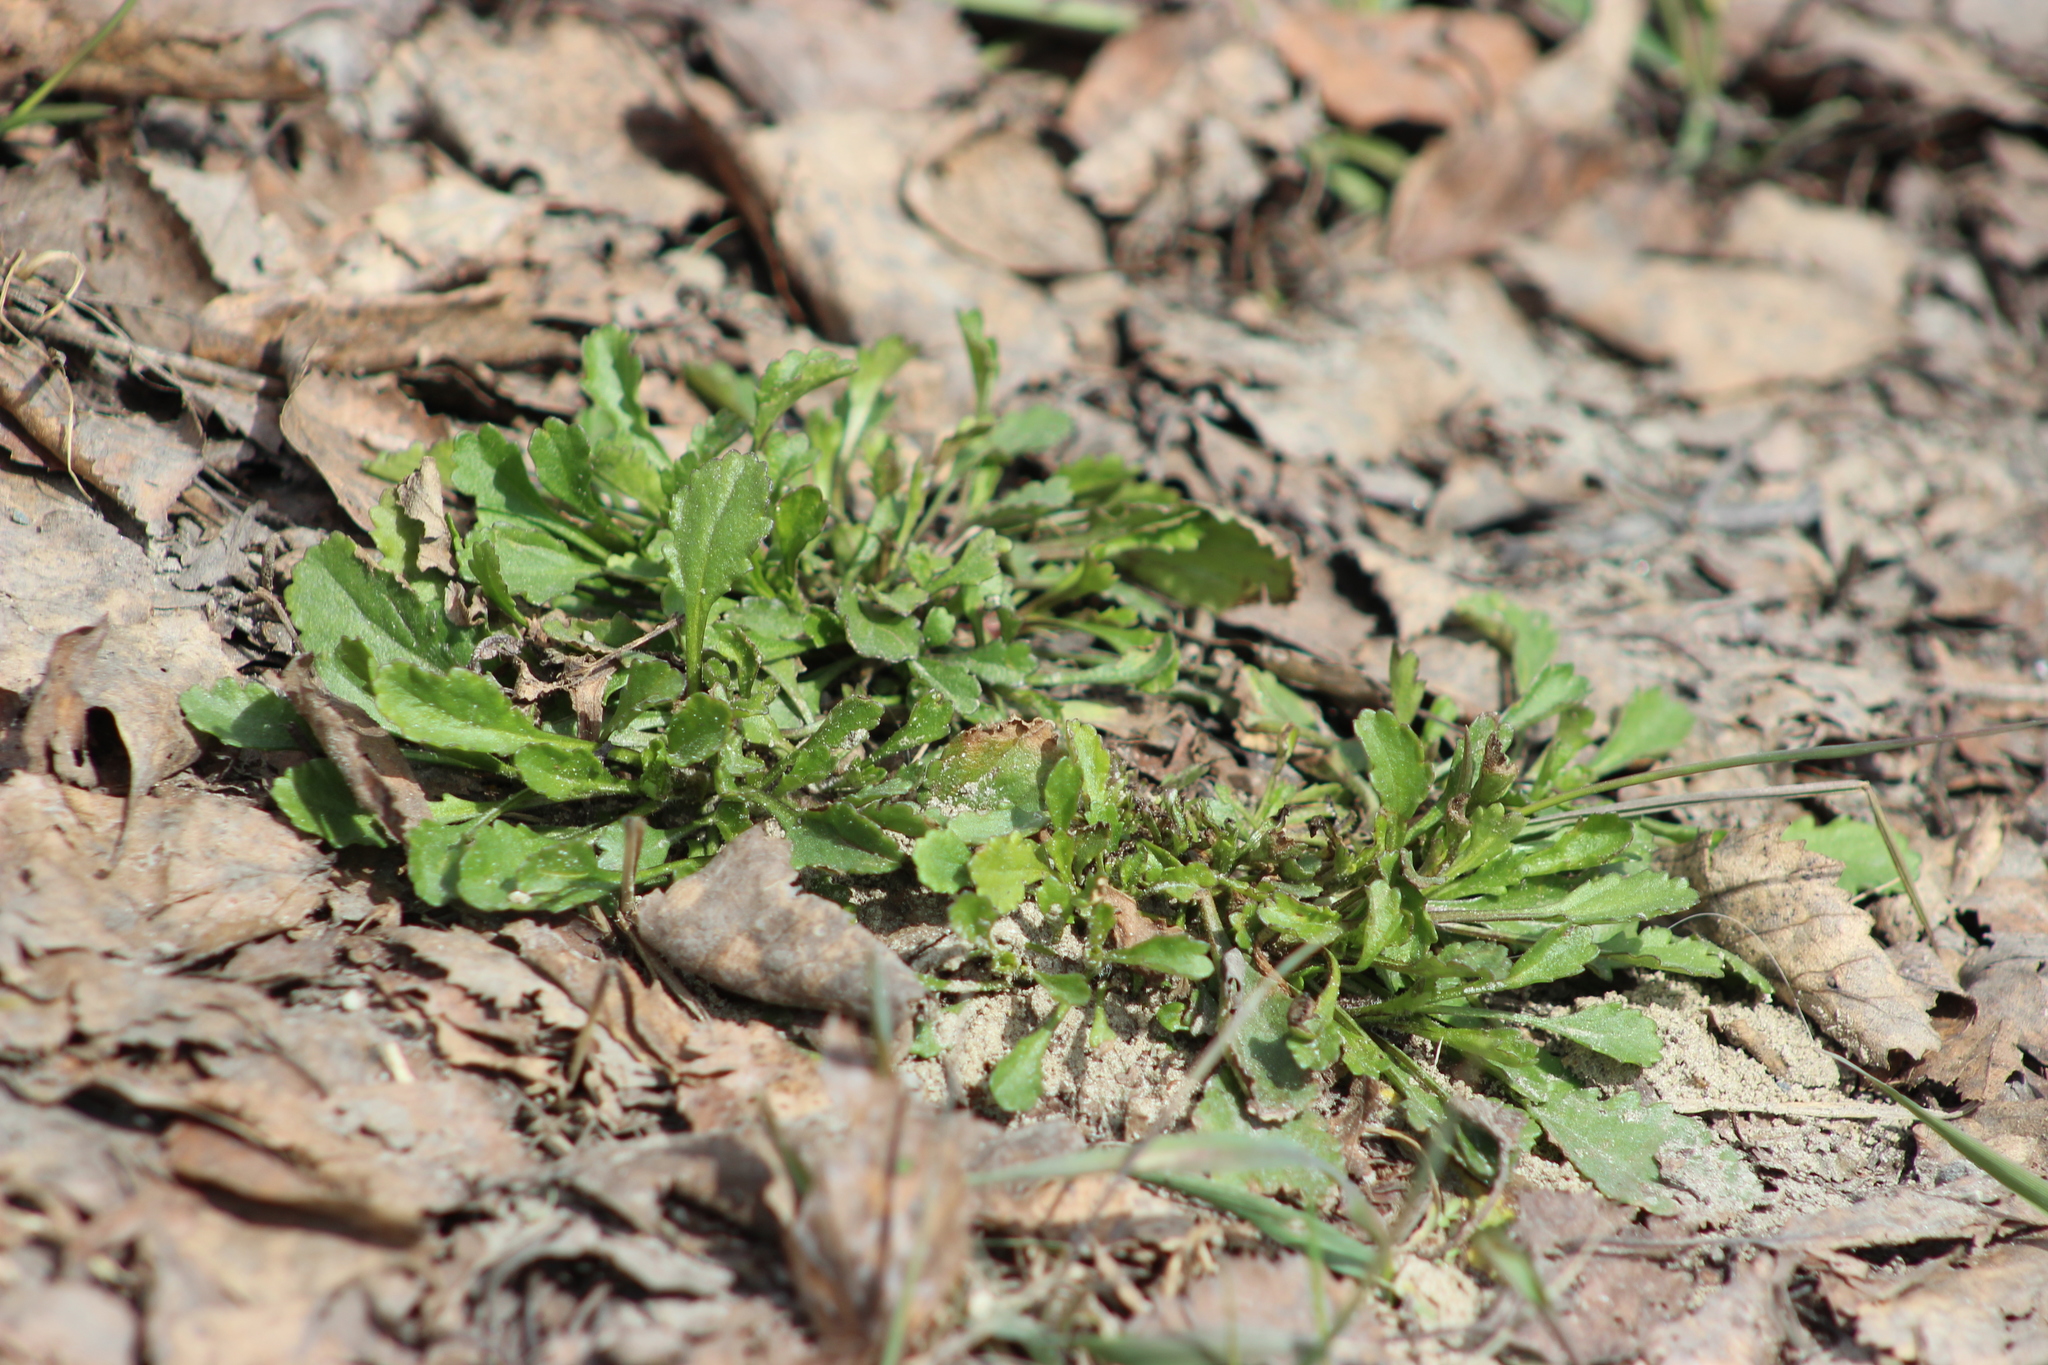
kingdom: Plantae
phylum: Tracheophyta
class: Magnoliopsida
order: Asterales
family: Asteraceae
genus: Leucanthemum
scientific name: Leucanthemum ircutianum
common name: Daisy
